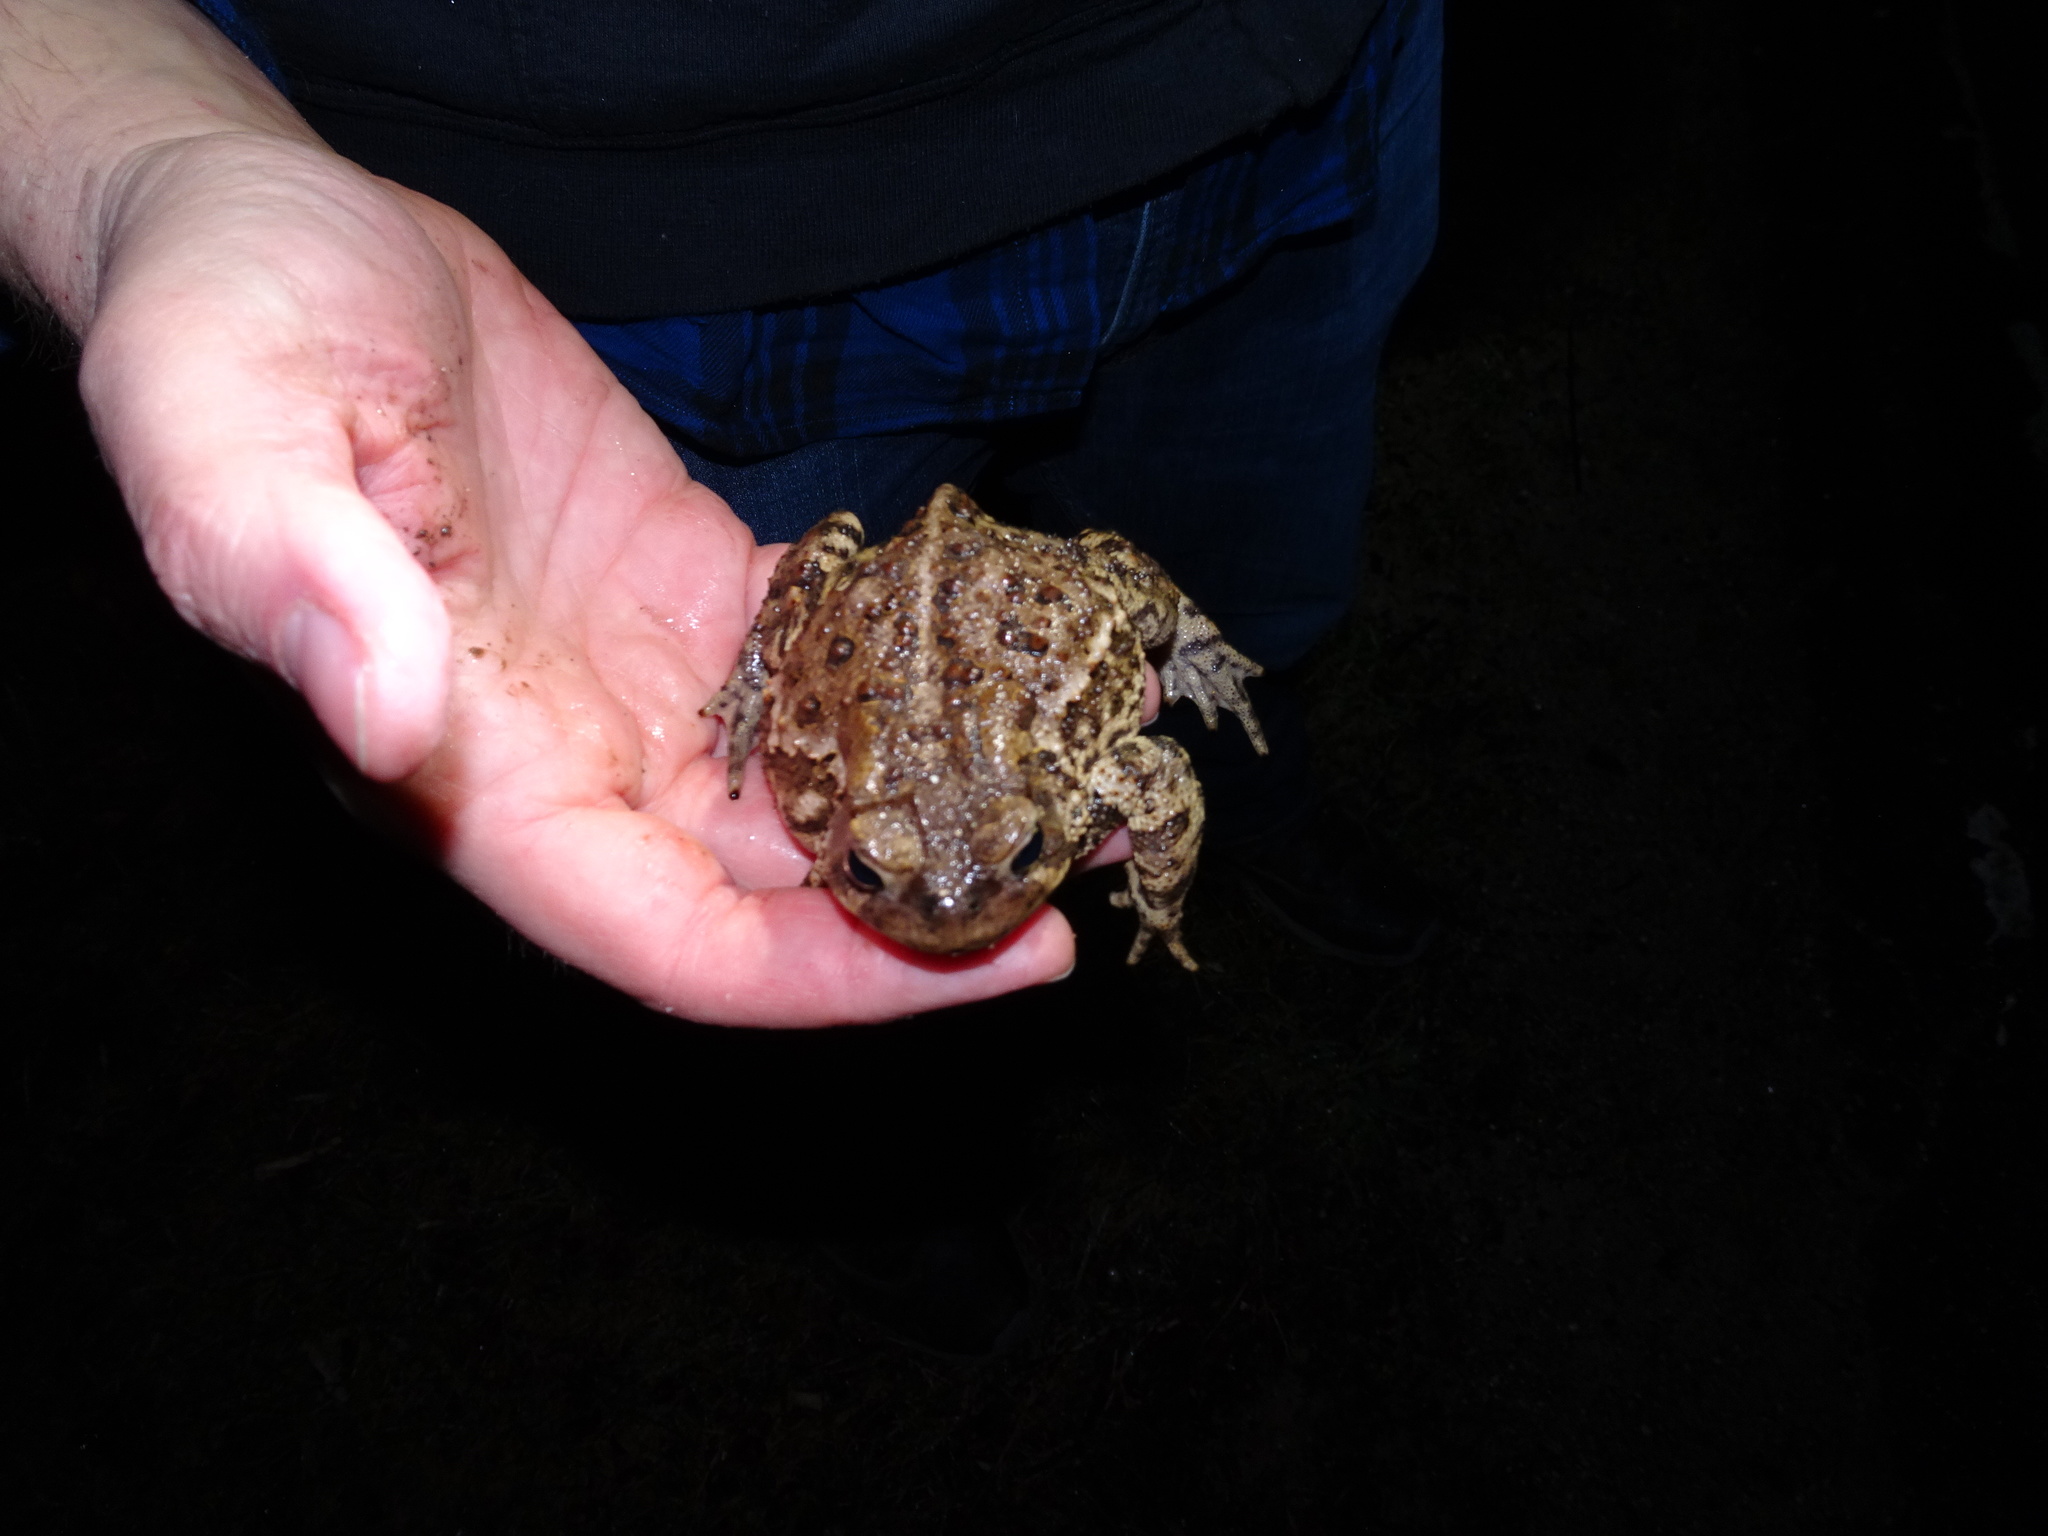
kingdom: Animalia
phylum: Chordata
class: Amphibia
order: Anura
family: Bufonidae
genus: Anaxyrus
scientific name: Anaxyrus americanus
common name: American toad
